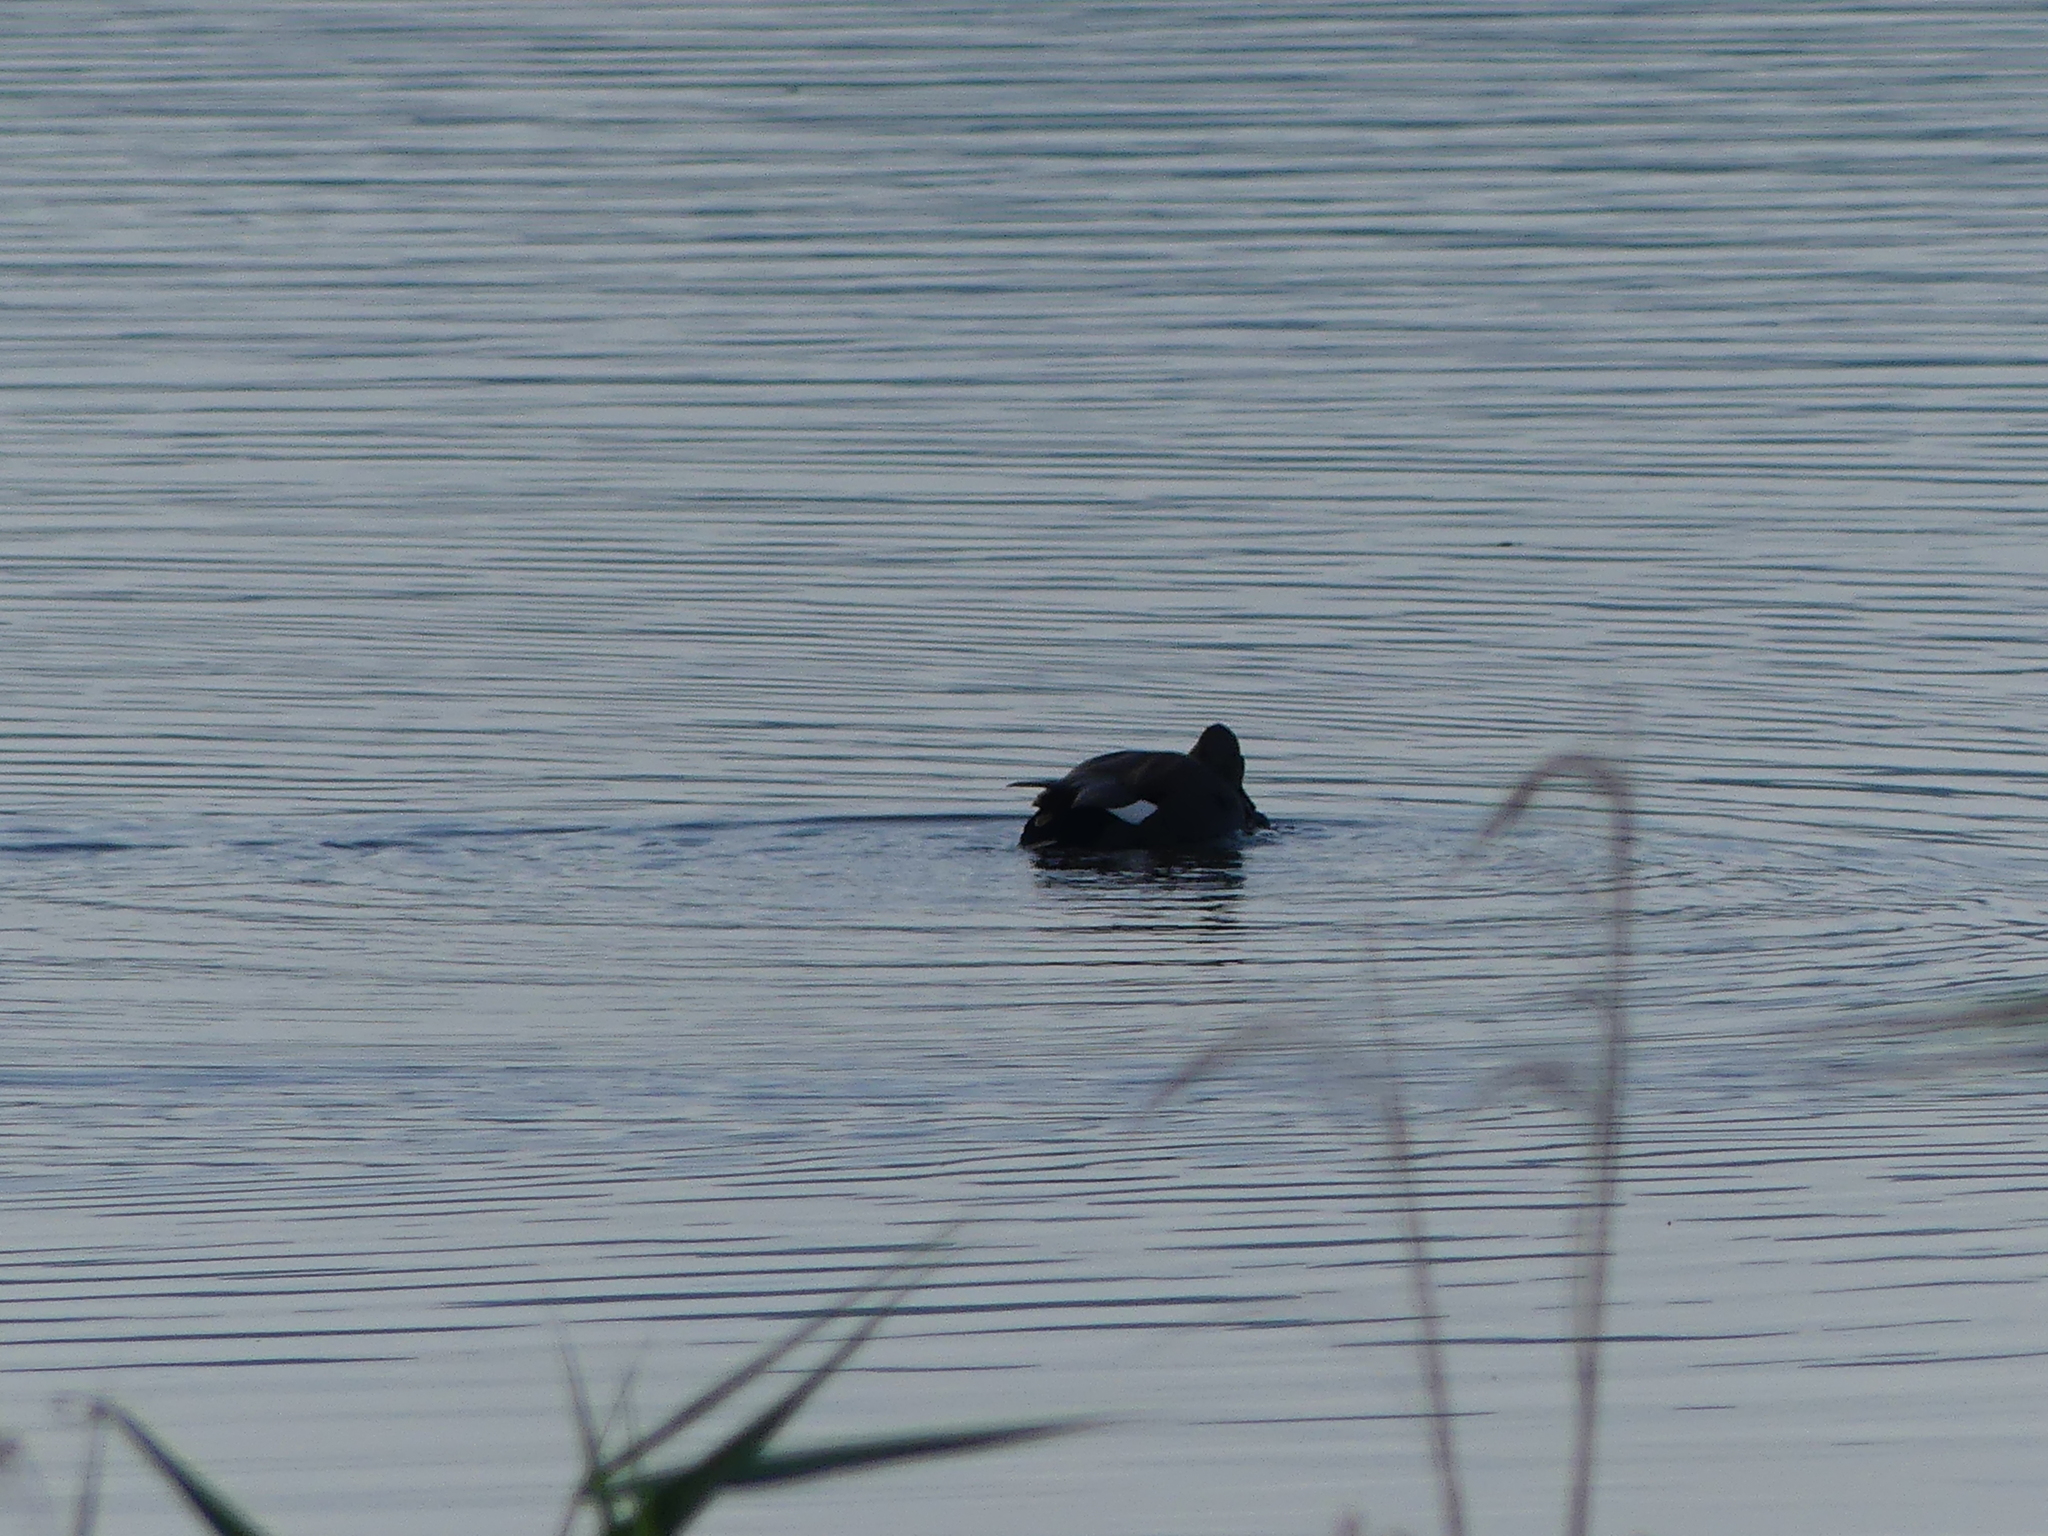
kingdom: Animalia
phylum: Chordata
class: Aves
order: Anseriformes
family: Anatidae
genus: Mareca
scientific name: Mareca strepera
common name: Gadwall
